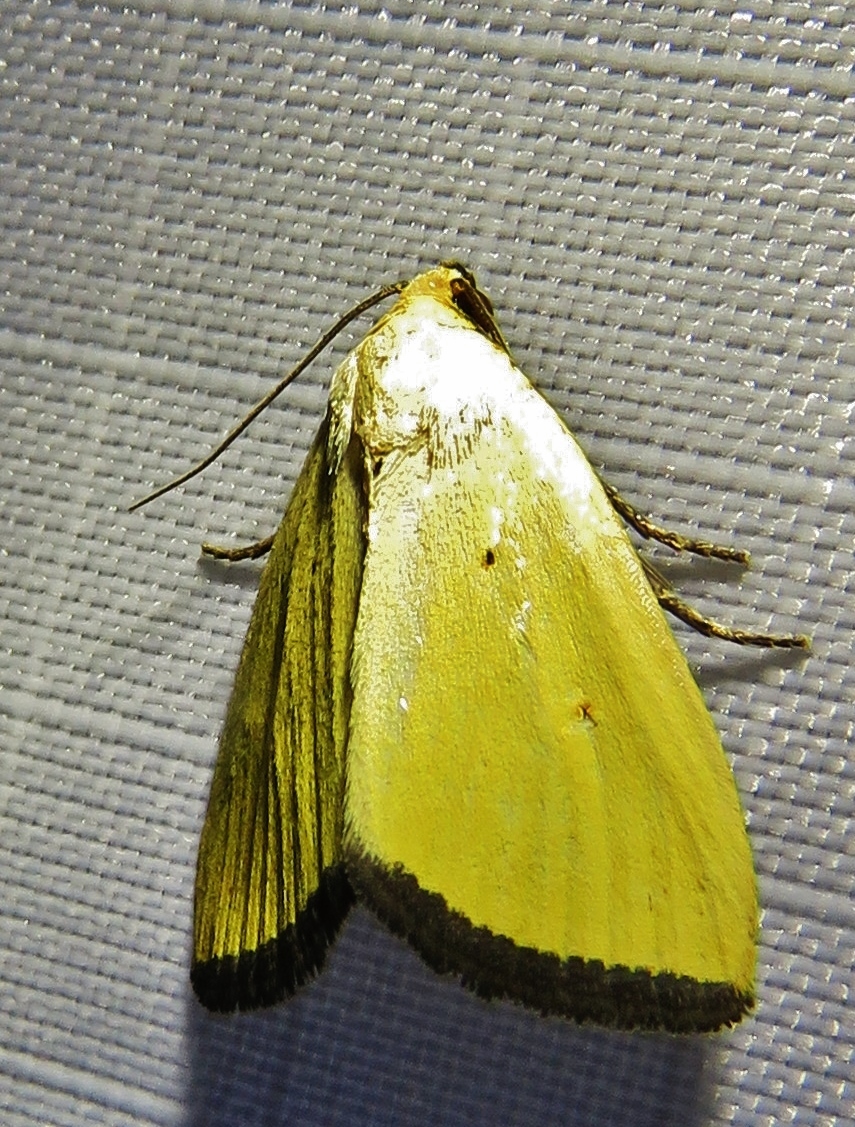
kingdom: Animalia
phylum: Arthropoda
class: Insecta
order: Lepidoptera
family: Noctuidae
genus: Marimatha
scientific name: Marimatha nigrofimbria
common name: Black-bordered lemon moth
